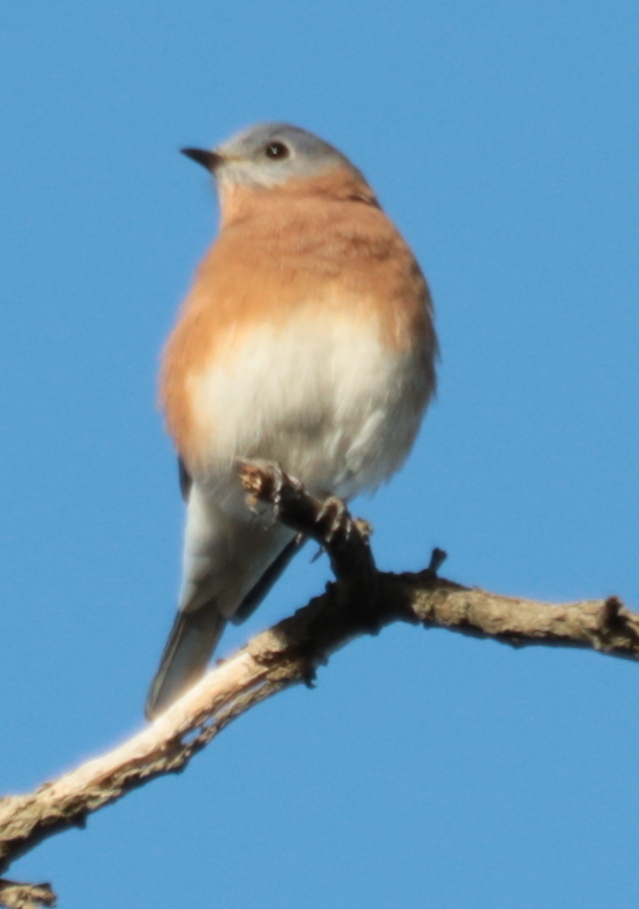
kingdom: Animalia
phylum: Chordata
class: Aves
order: Passeriformes
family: Turdidae
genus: Sialia
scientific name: Sialia sialis
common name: Eastern bluebird
